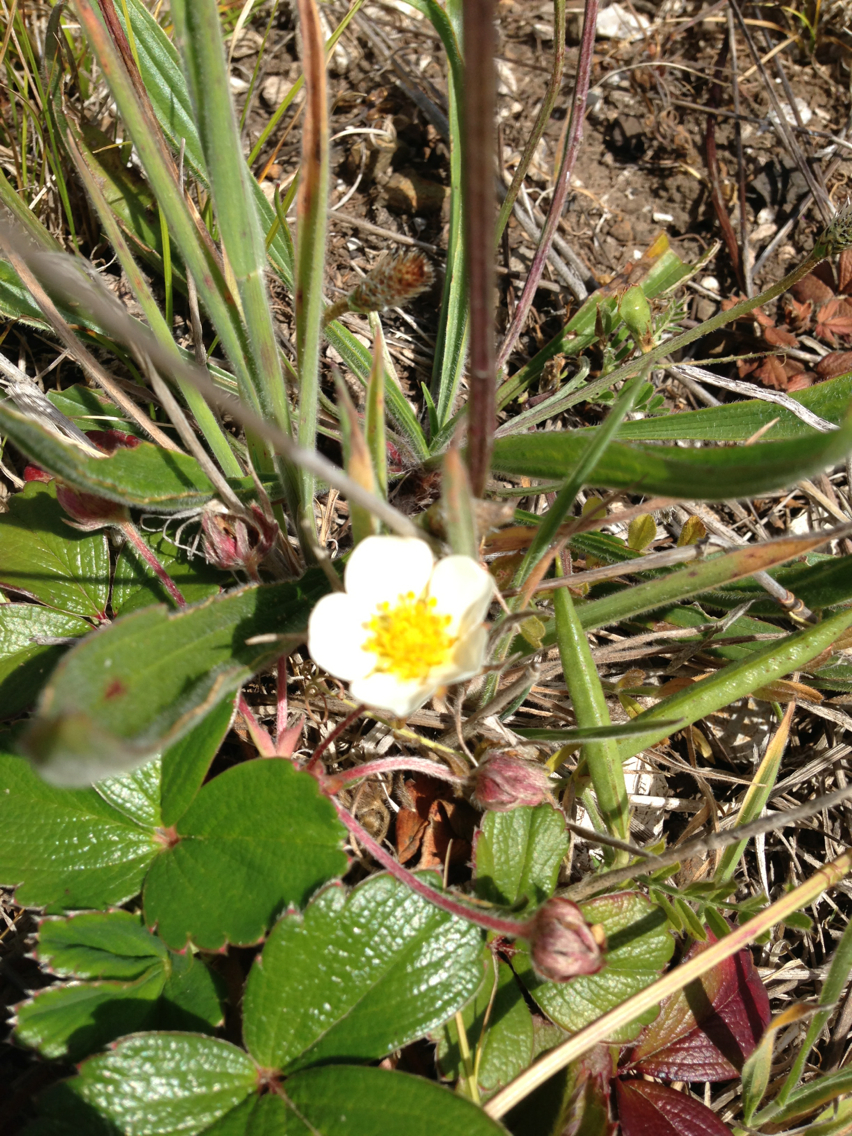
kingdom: Plantae
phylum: Tracheophyta
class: Magnoliopsida
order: Rosales
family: Rosaceae
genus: Fragaria
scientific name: Fragaria chiloensis
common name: Beach strawberry
